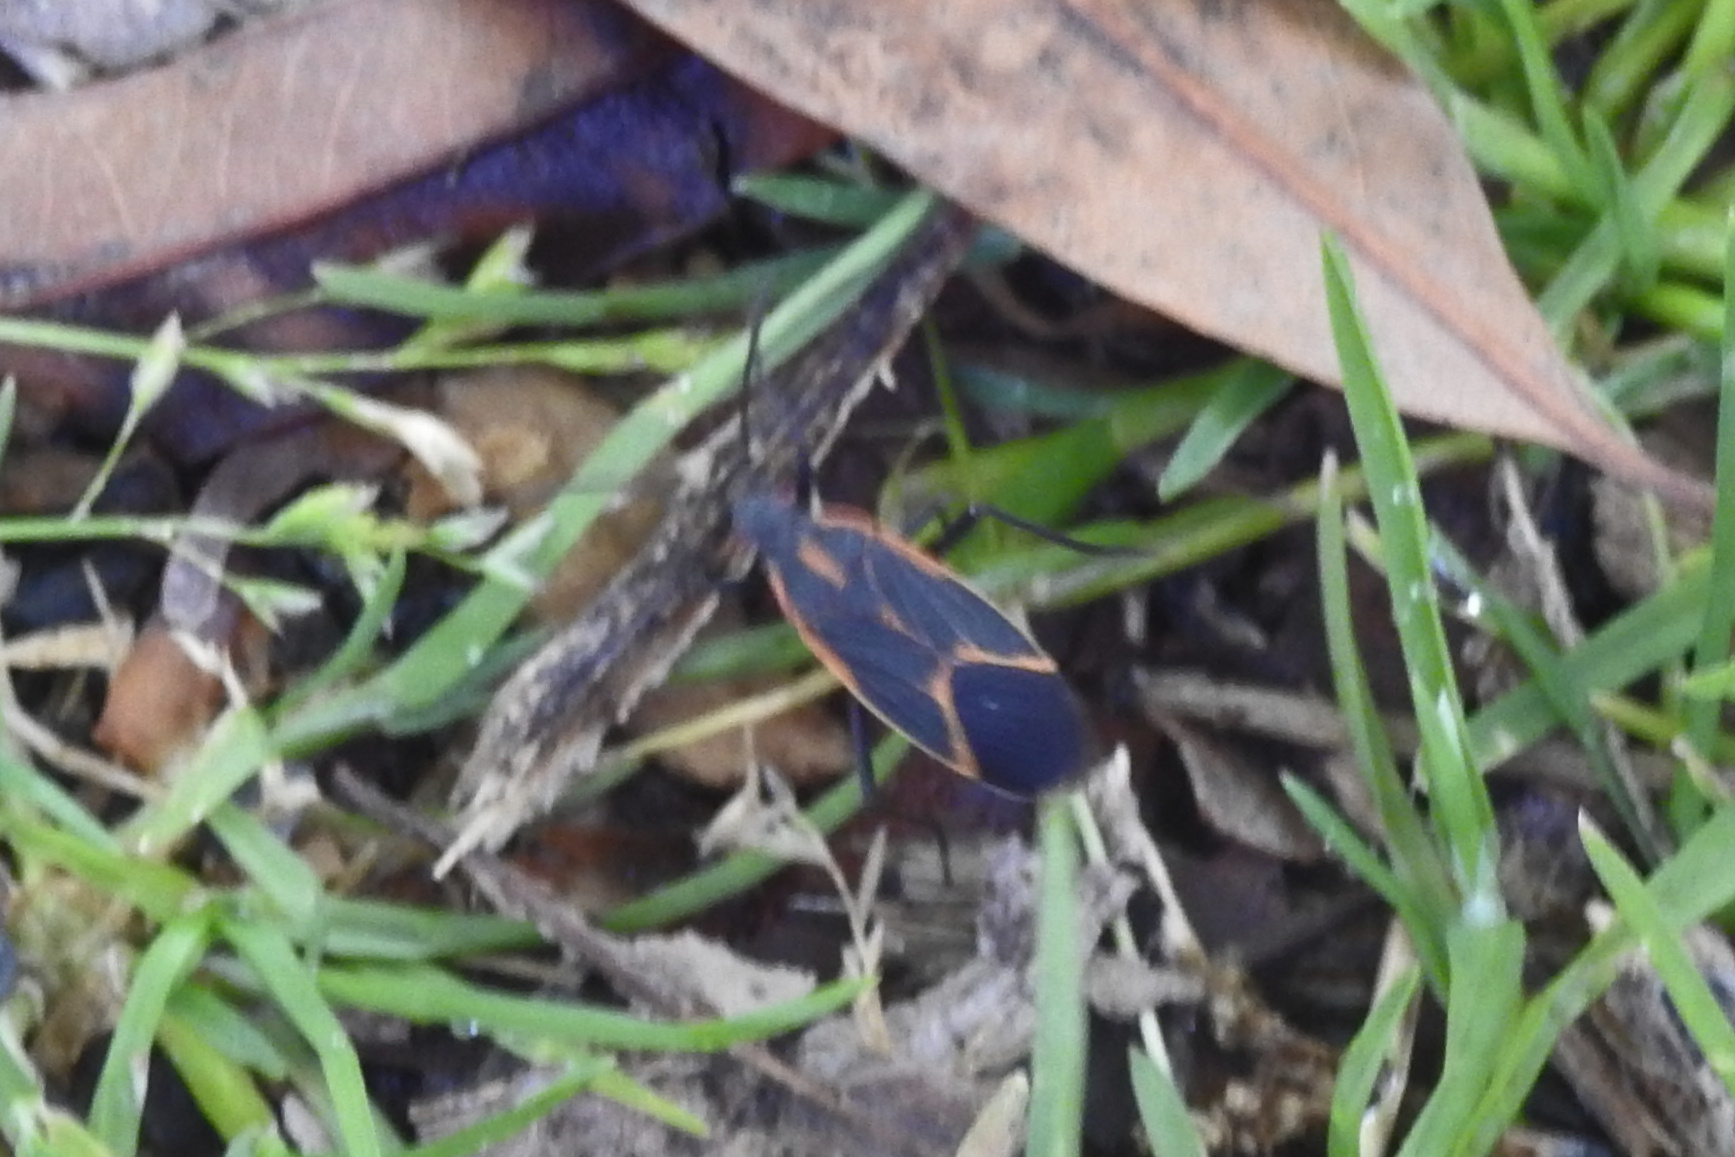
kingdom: Animalia
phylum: Arthropoda
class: Insecta
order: Hemiptera
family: Rhopalidae
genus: Boisea
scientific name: Boisea trivittata
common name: Boxelder bug
